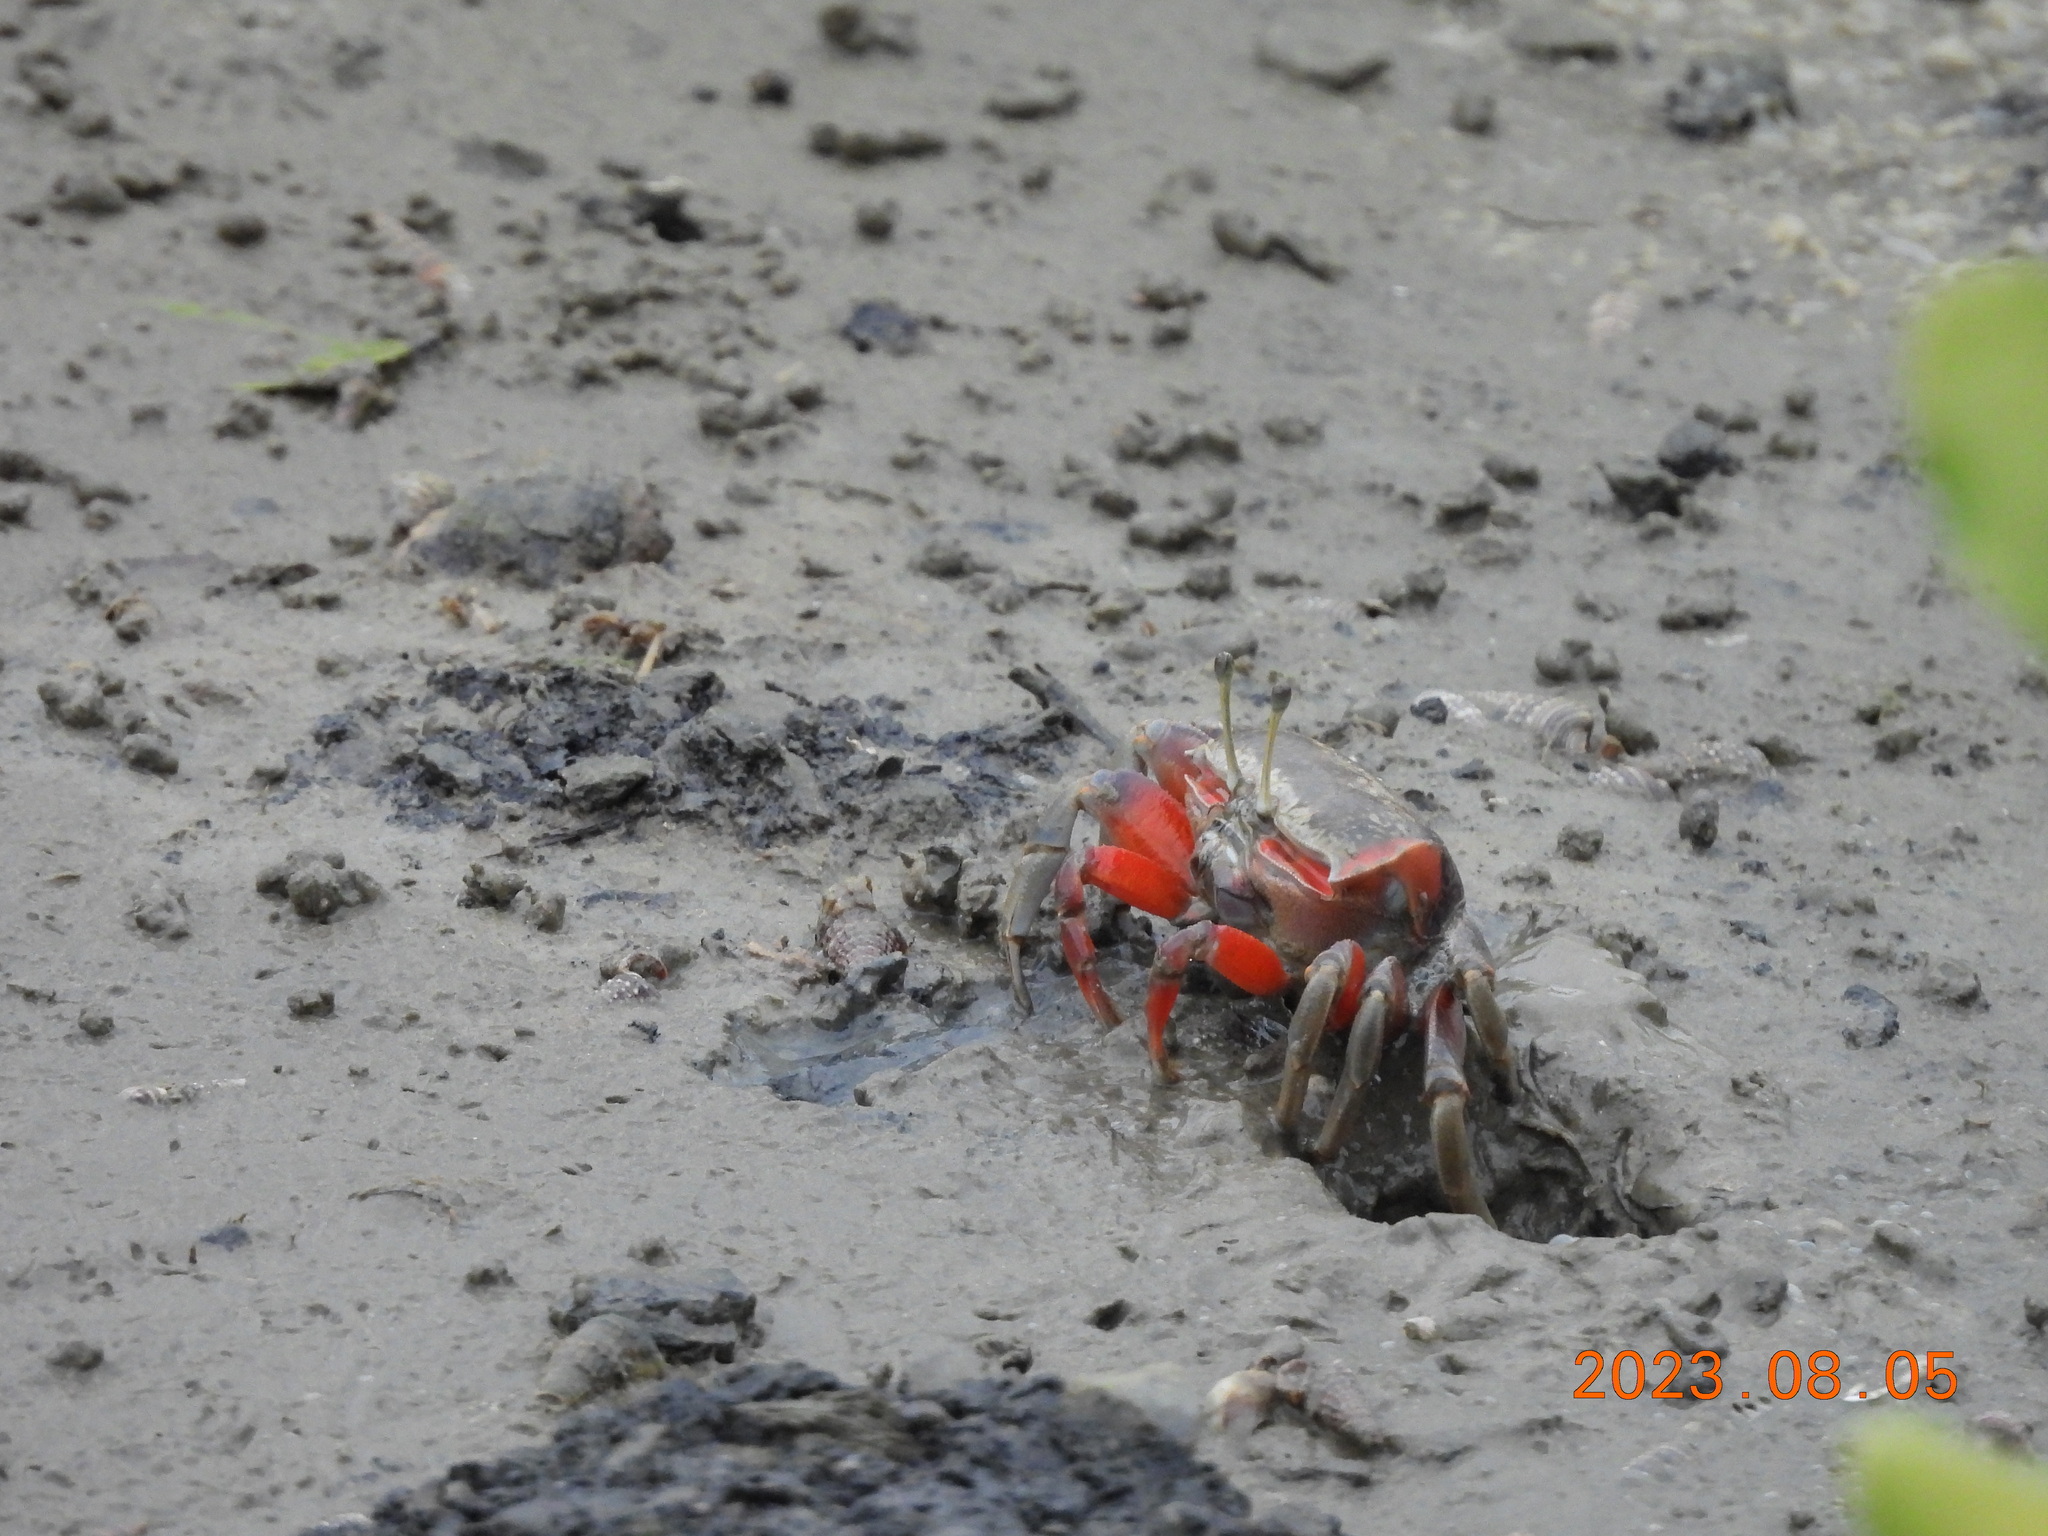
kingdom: Animalia
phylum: Arthropoda
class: Malacostraca
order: Decapoda
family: Ocypodidae
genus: Tubuca
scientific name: Tubuca arcuata
